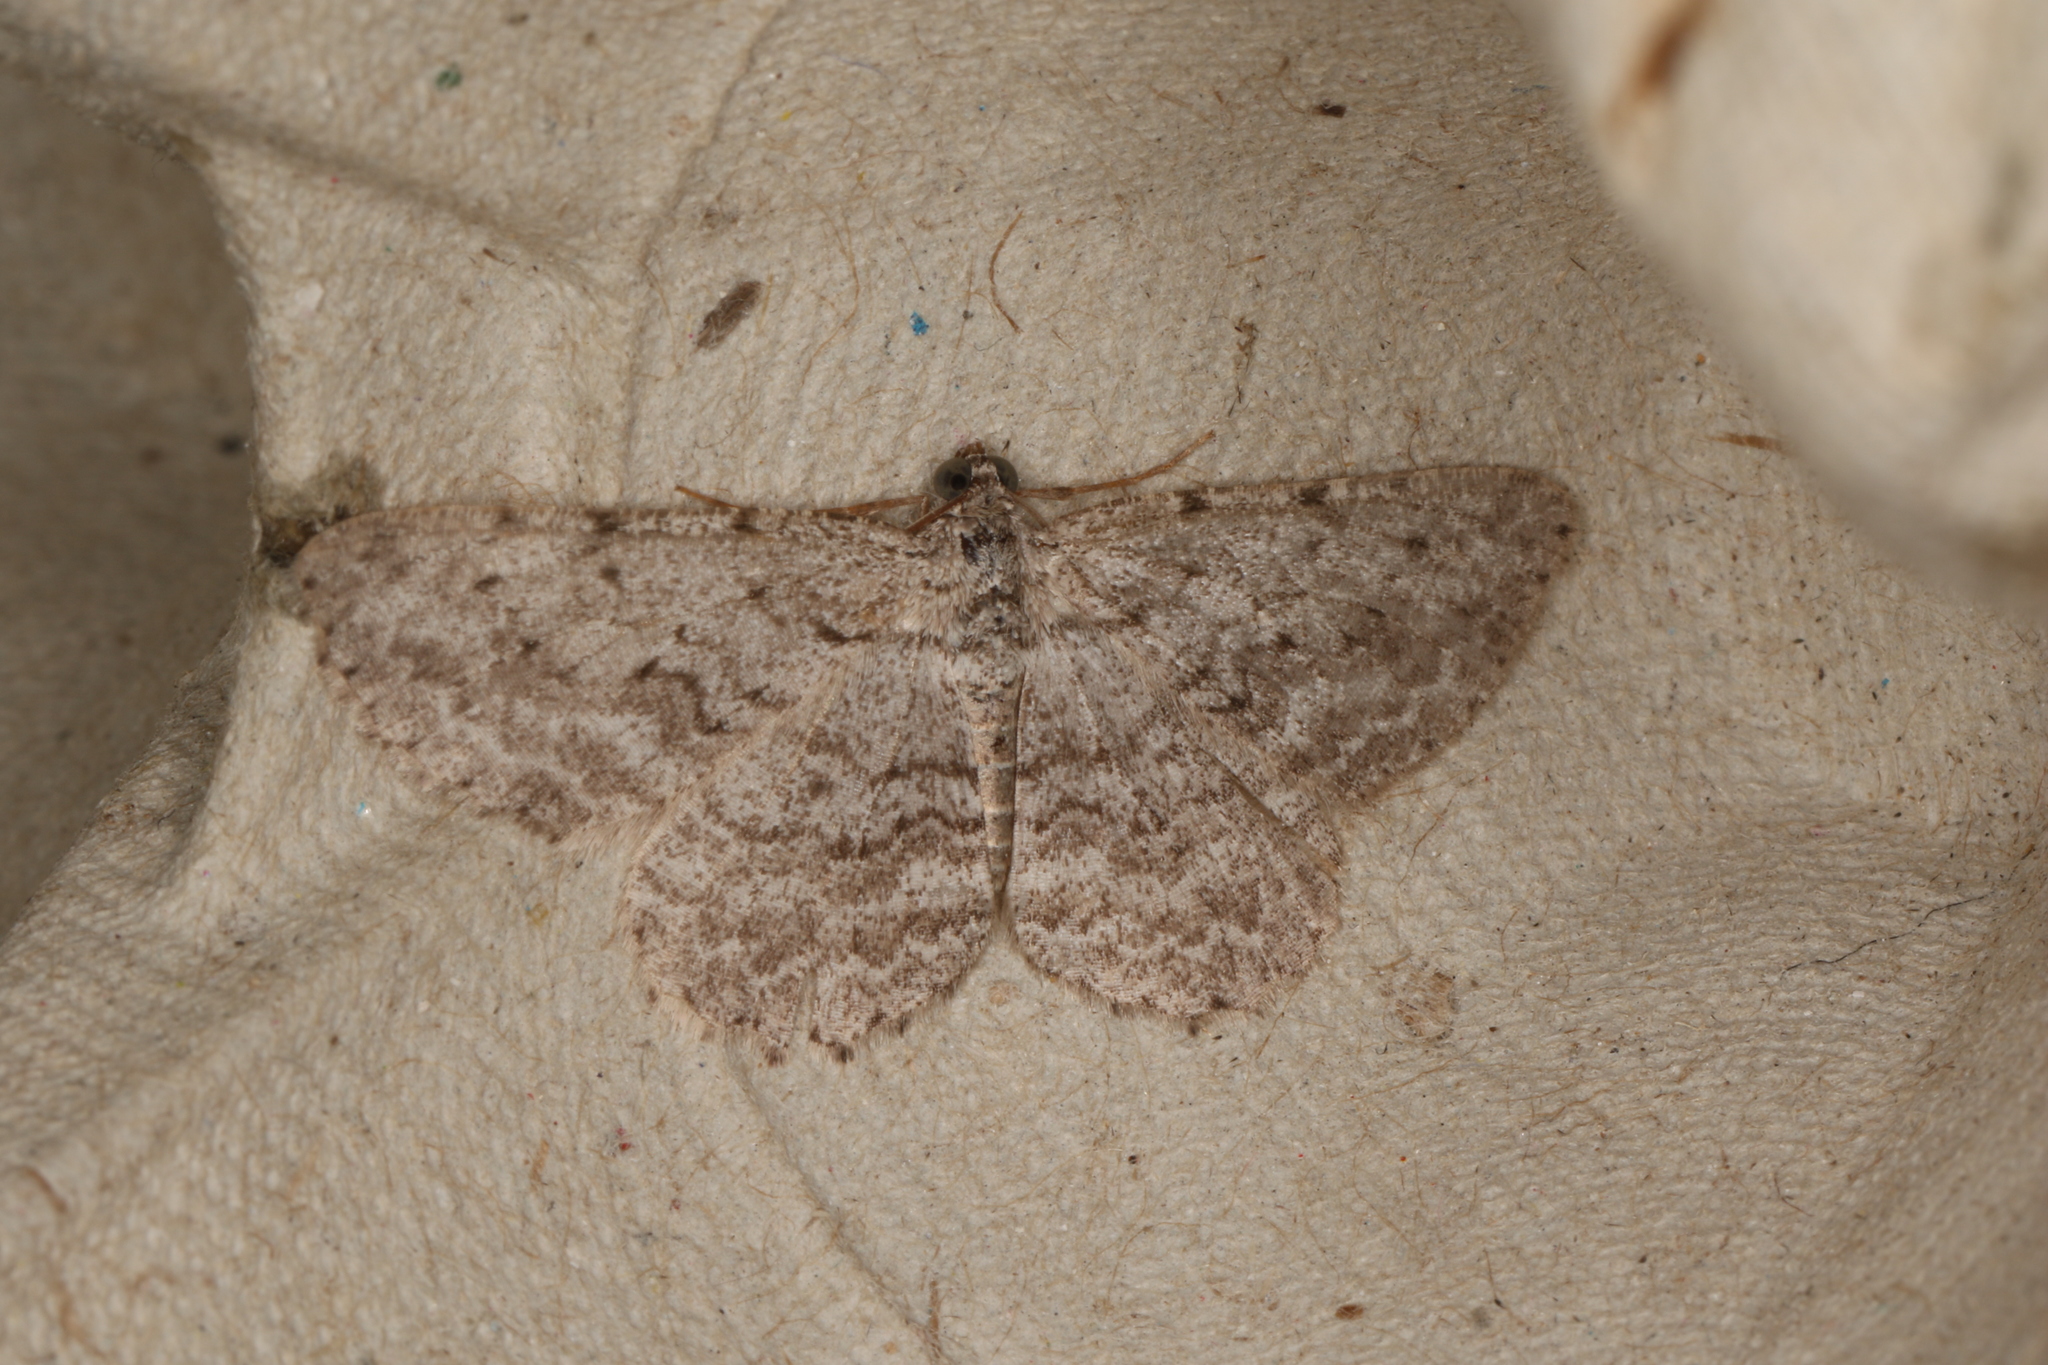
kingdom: Animalia
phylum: Arthropoda
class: Insecta
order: Lepidoptera
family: Geometridae
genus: Psilosticha
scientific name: Psilosticha absorpta
